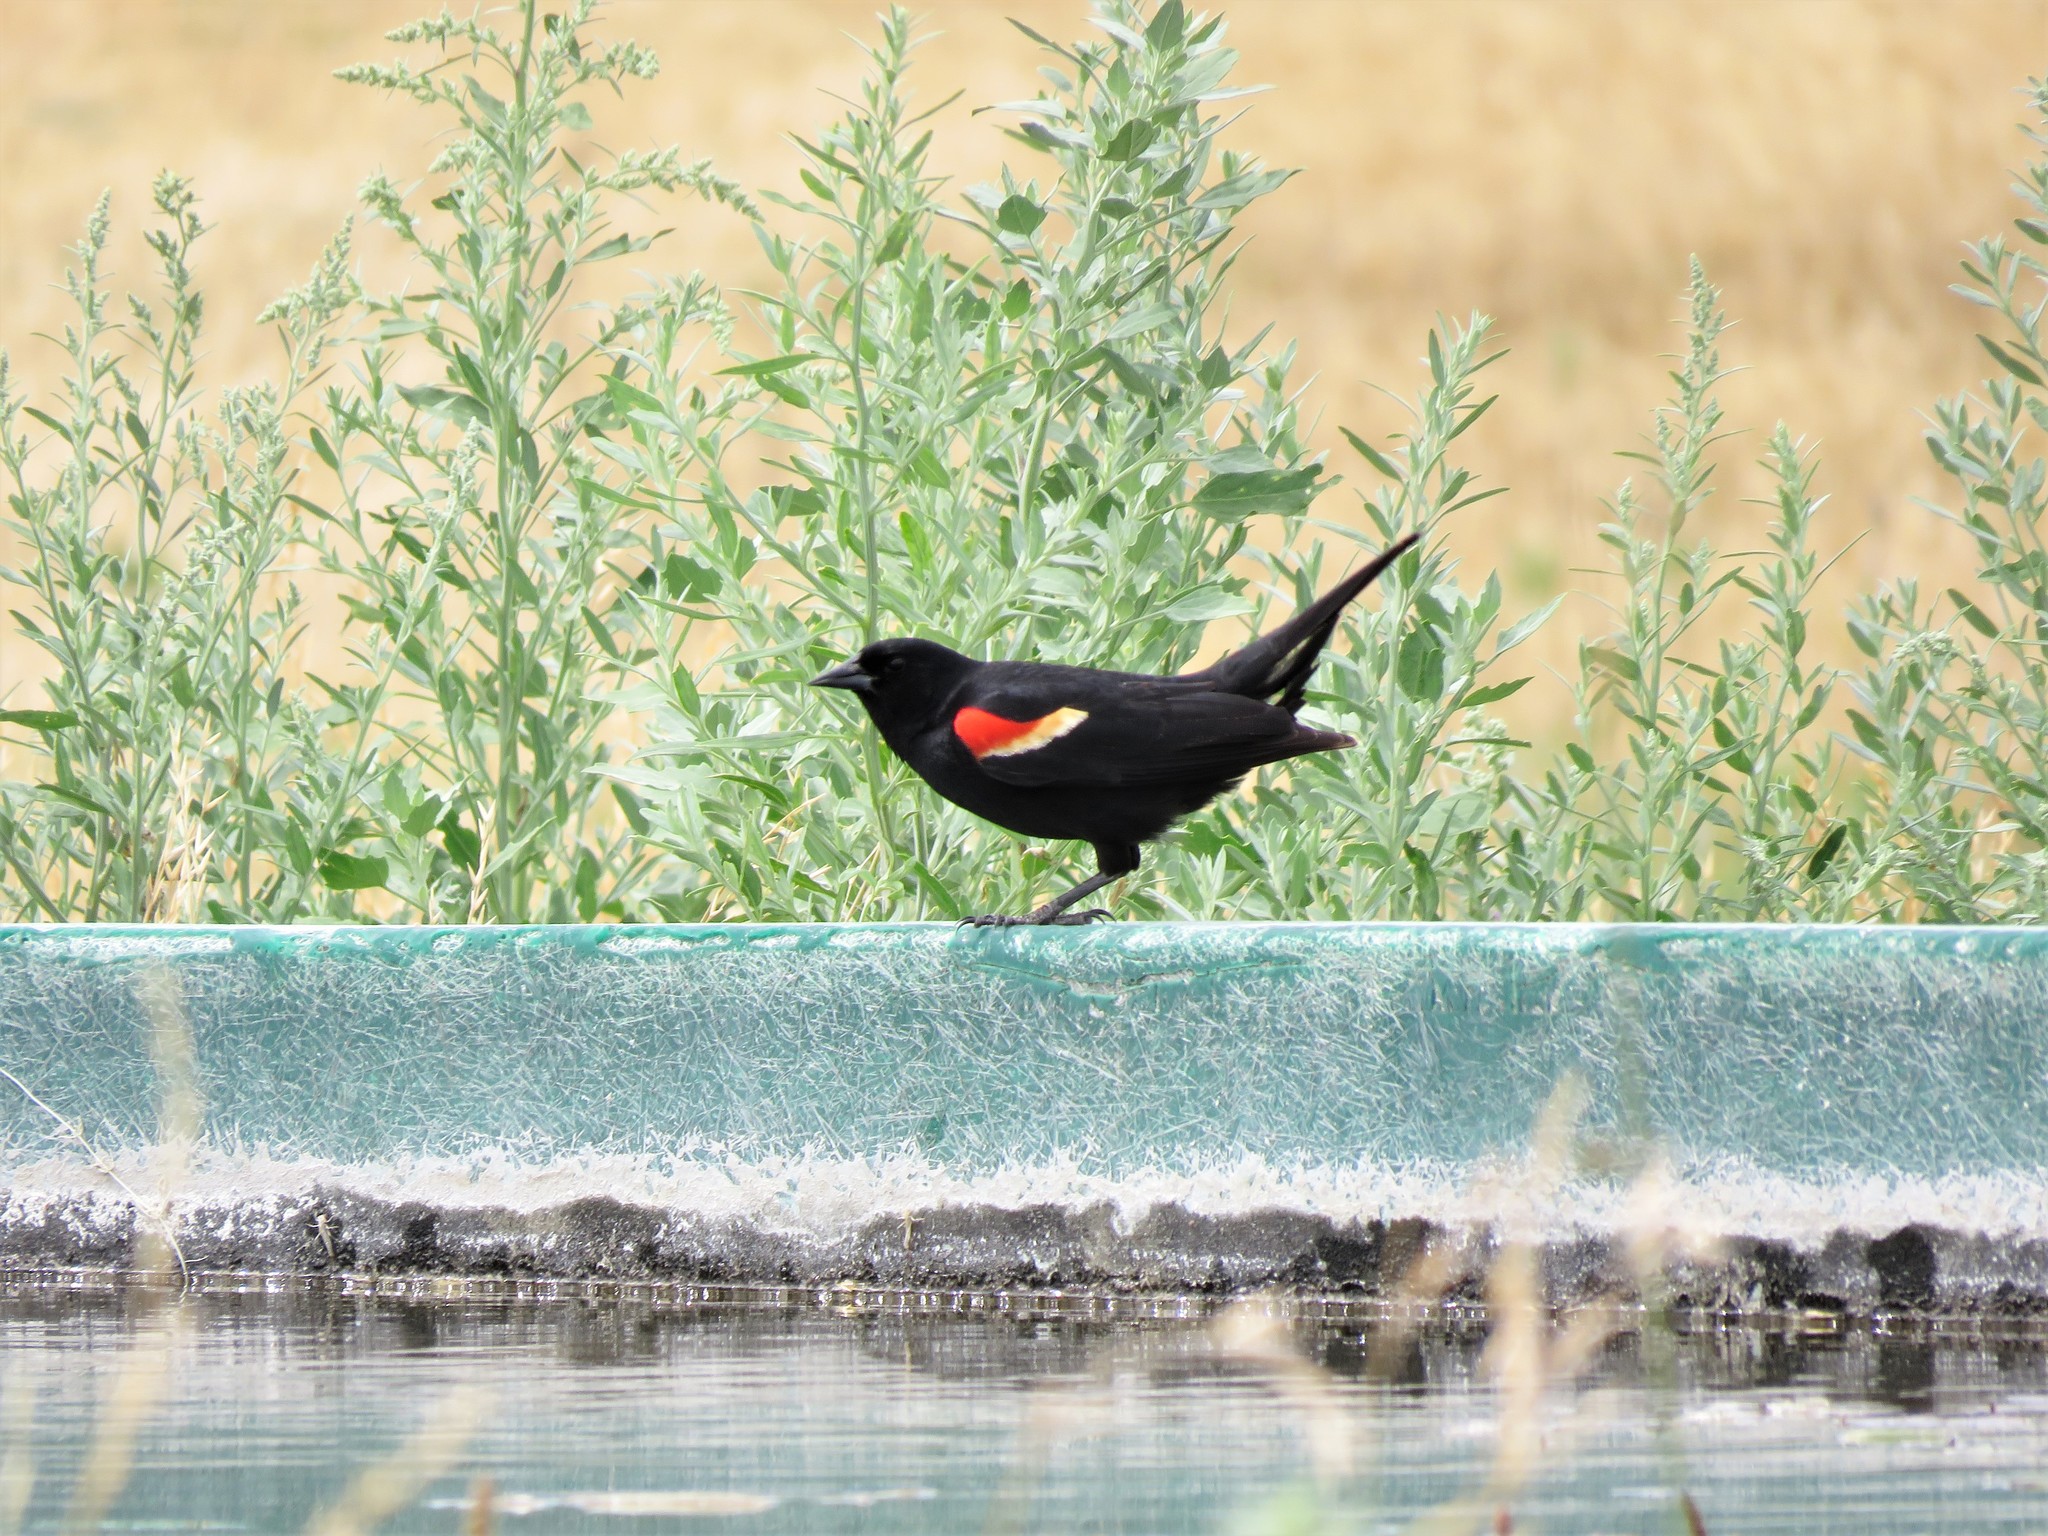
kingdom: Animalia
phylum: Chordata
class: Aves
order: Passeriformes
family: Icteridae
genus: Agelaius
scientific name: Agelaius phoeniceus
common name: Red-winged blackbird
